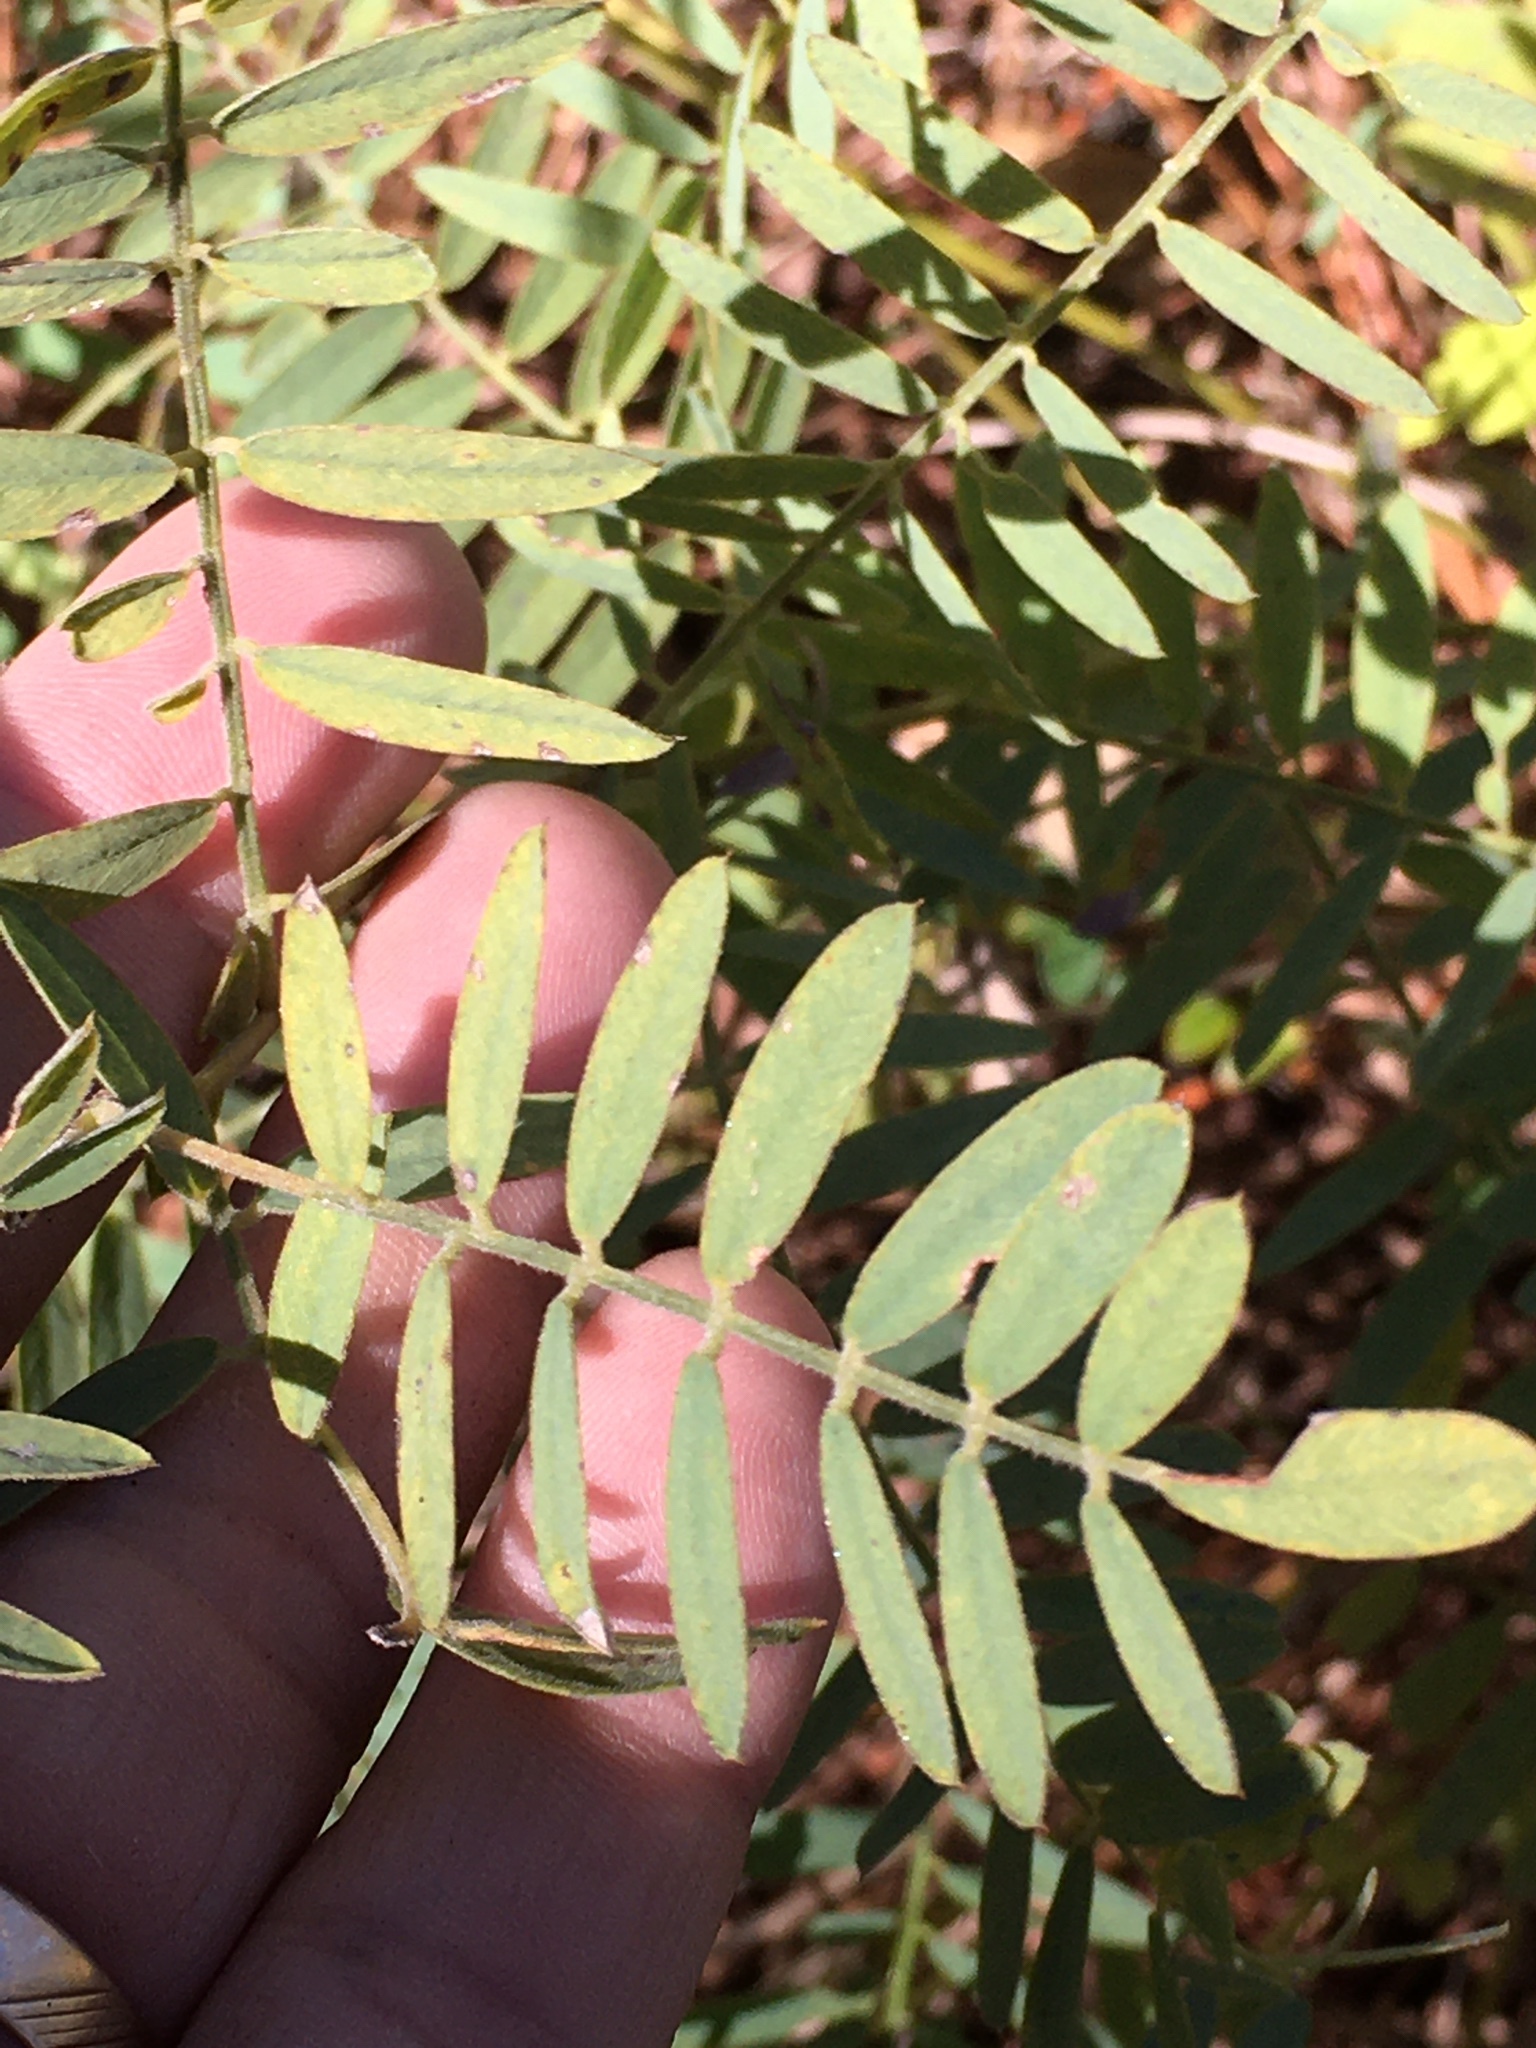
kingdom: Plantae
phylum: Tracheophyta
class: Magnoliopsida
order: Fabales
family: Fabaceae
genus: Tephrosia
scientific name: Tephrosia virginiana
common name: Rabbit-pea
